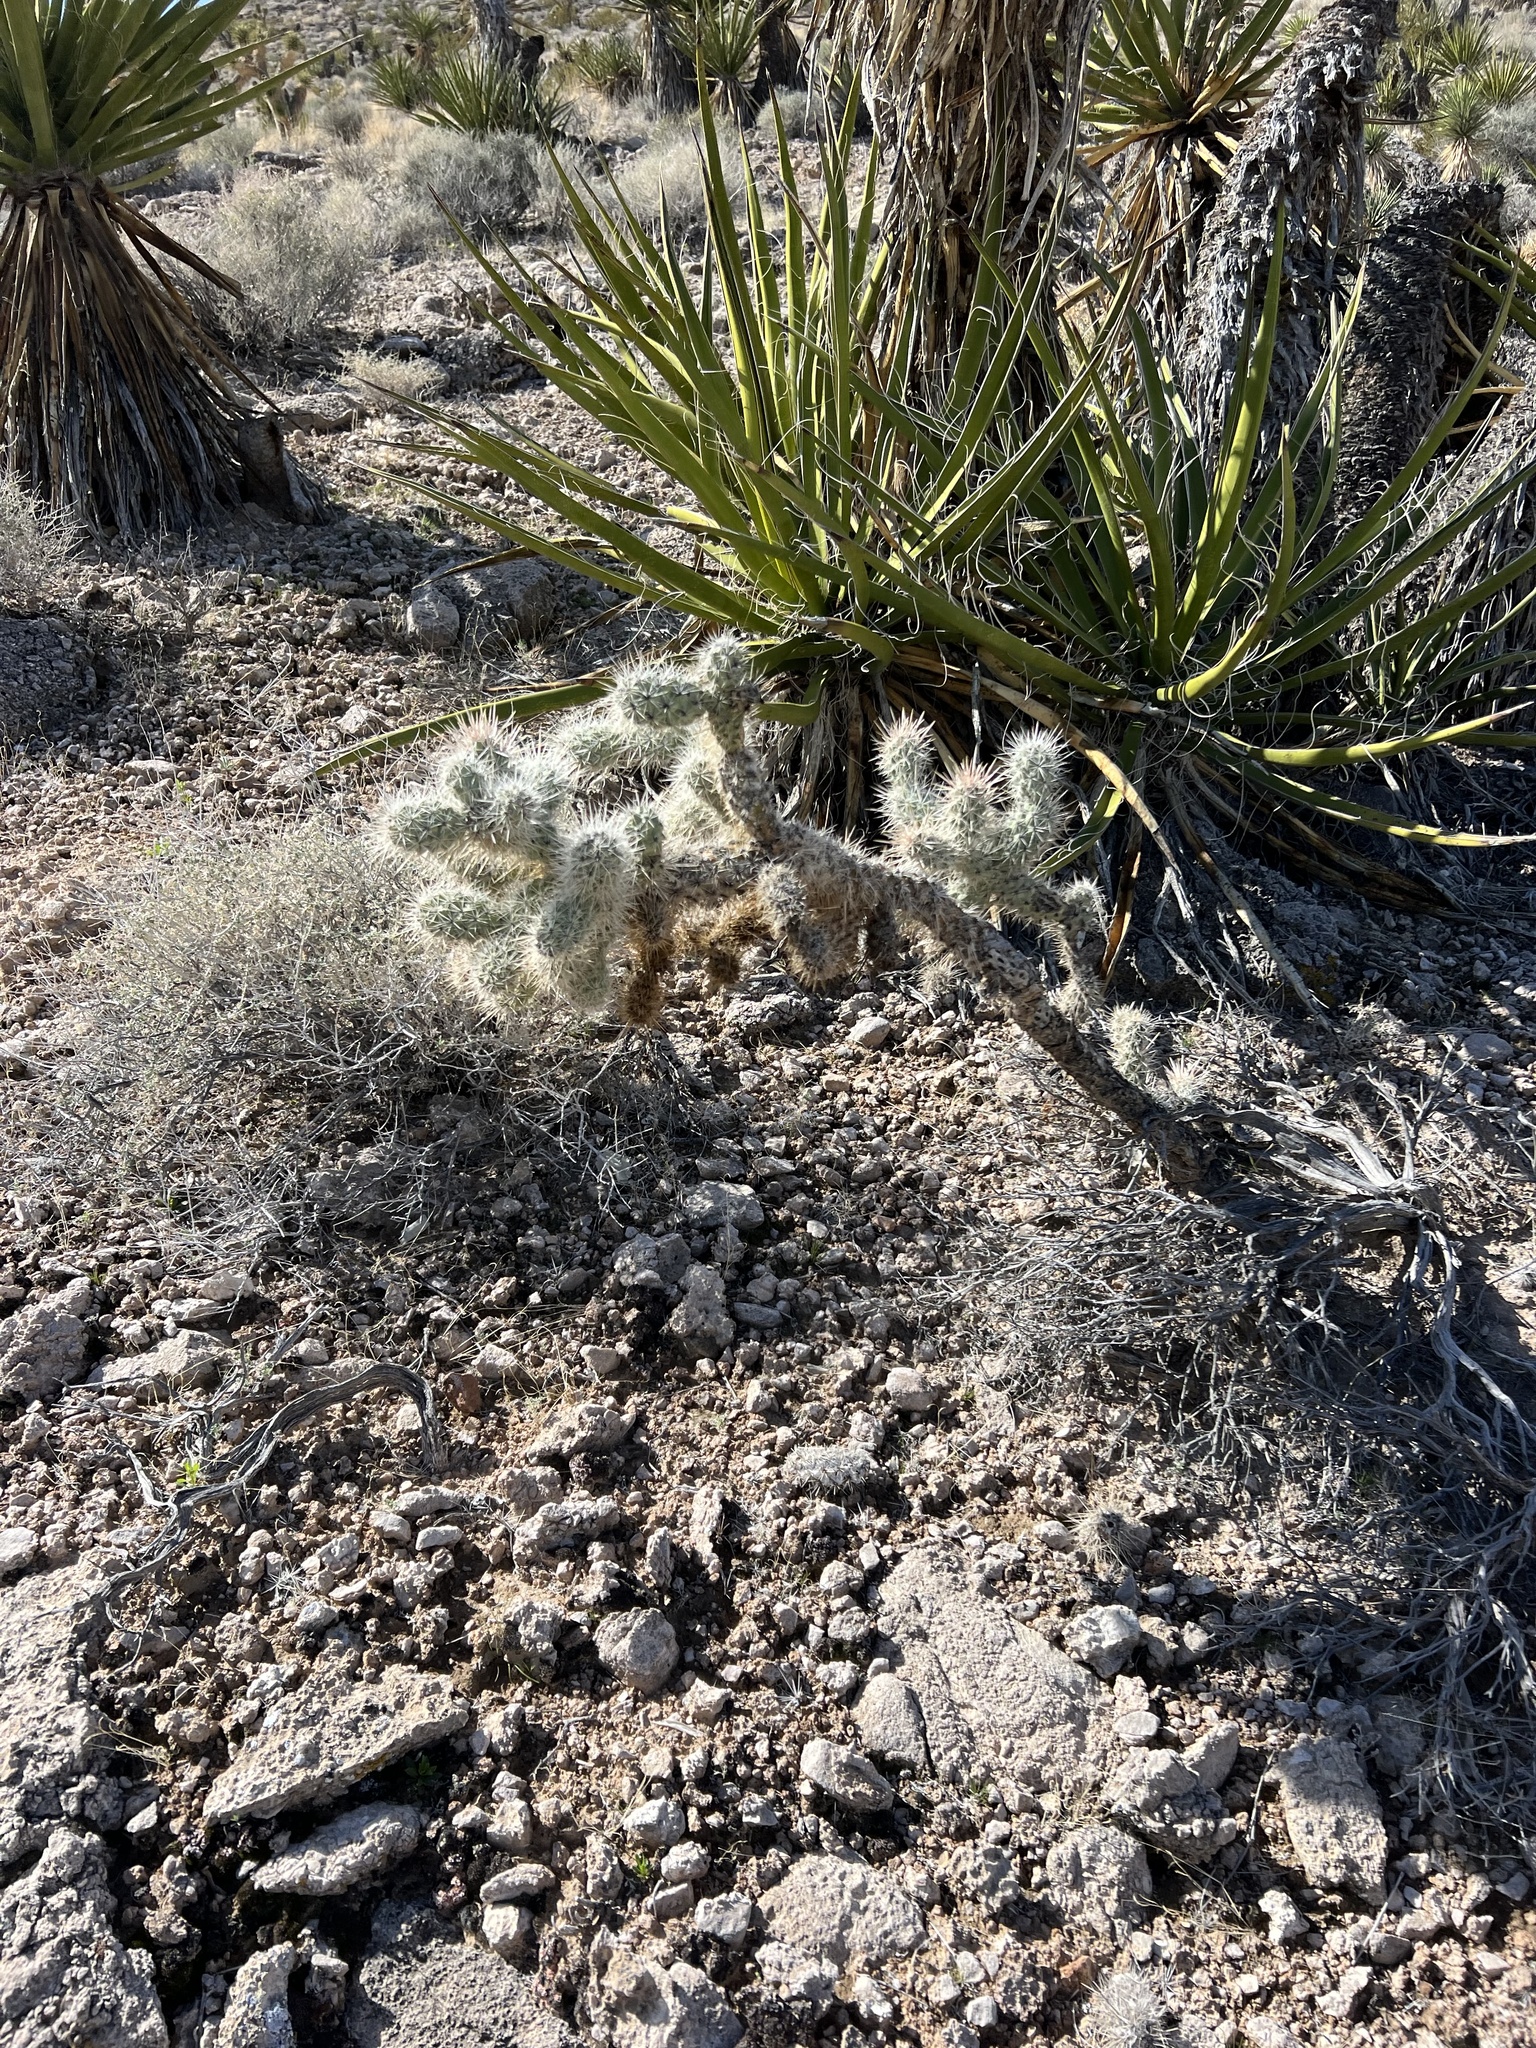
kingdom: Plantae
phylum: Tracheophyta
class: Magnoliopsida
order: Caryophyllales
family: Cactaceae
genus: Cylindropuntia
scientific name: Cylindropuntia echinocarpa
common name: Ground cholla
